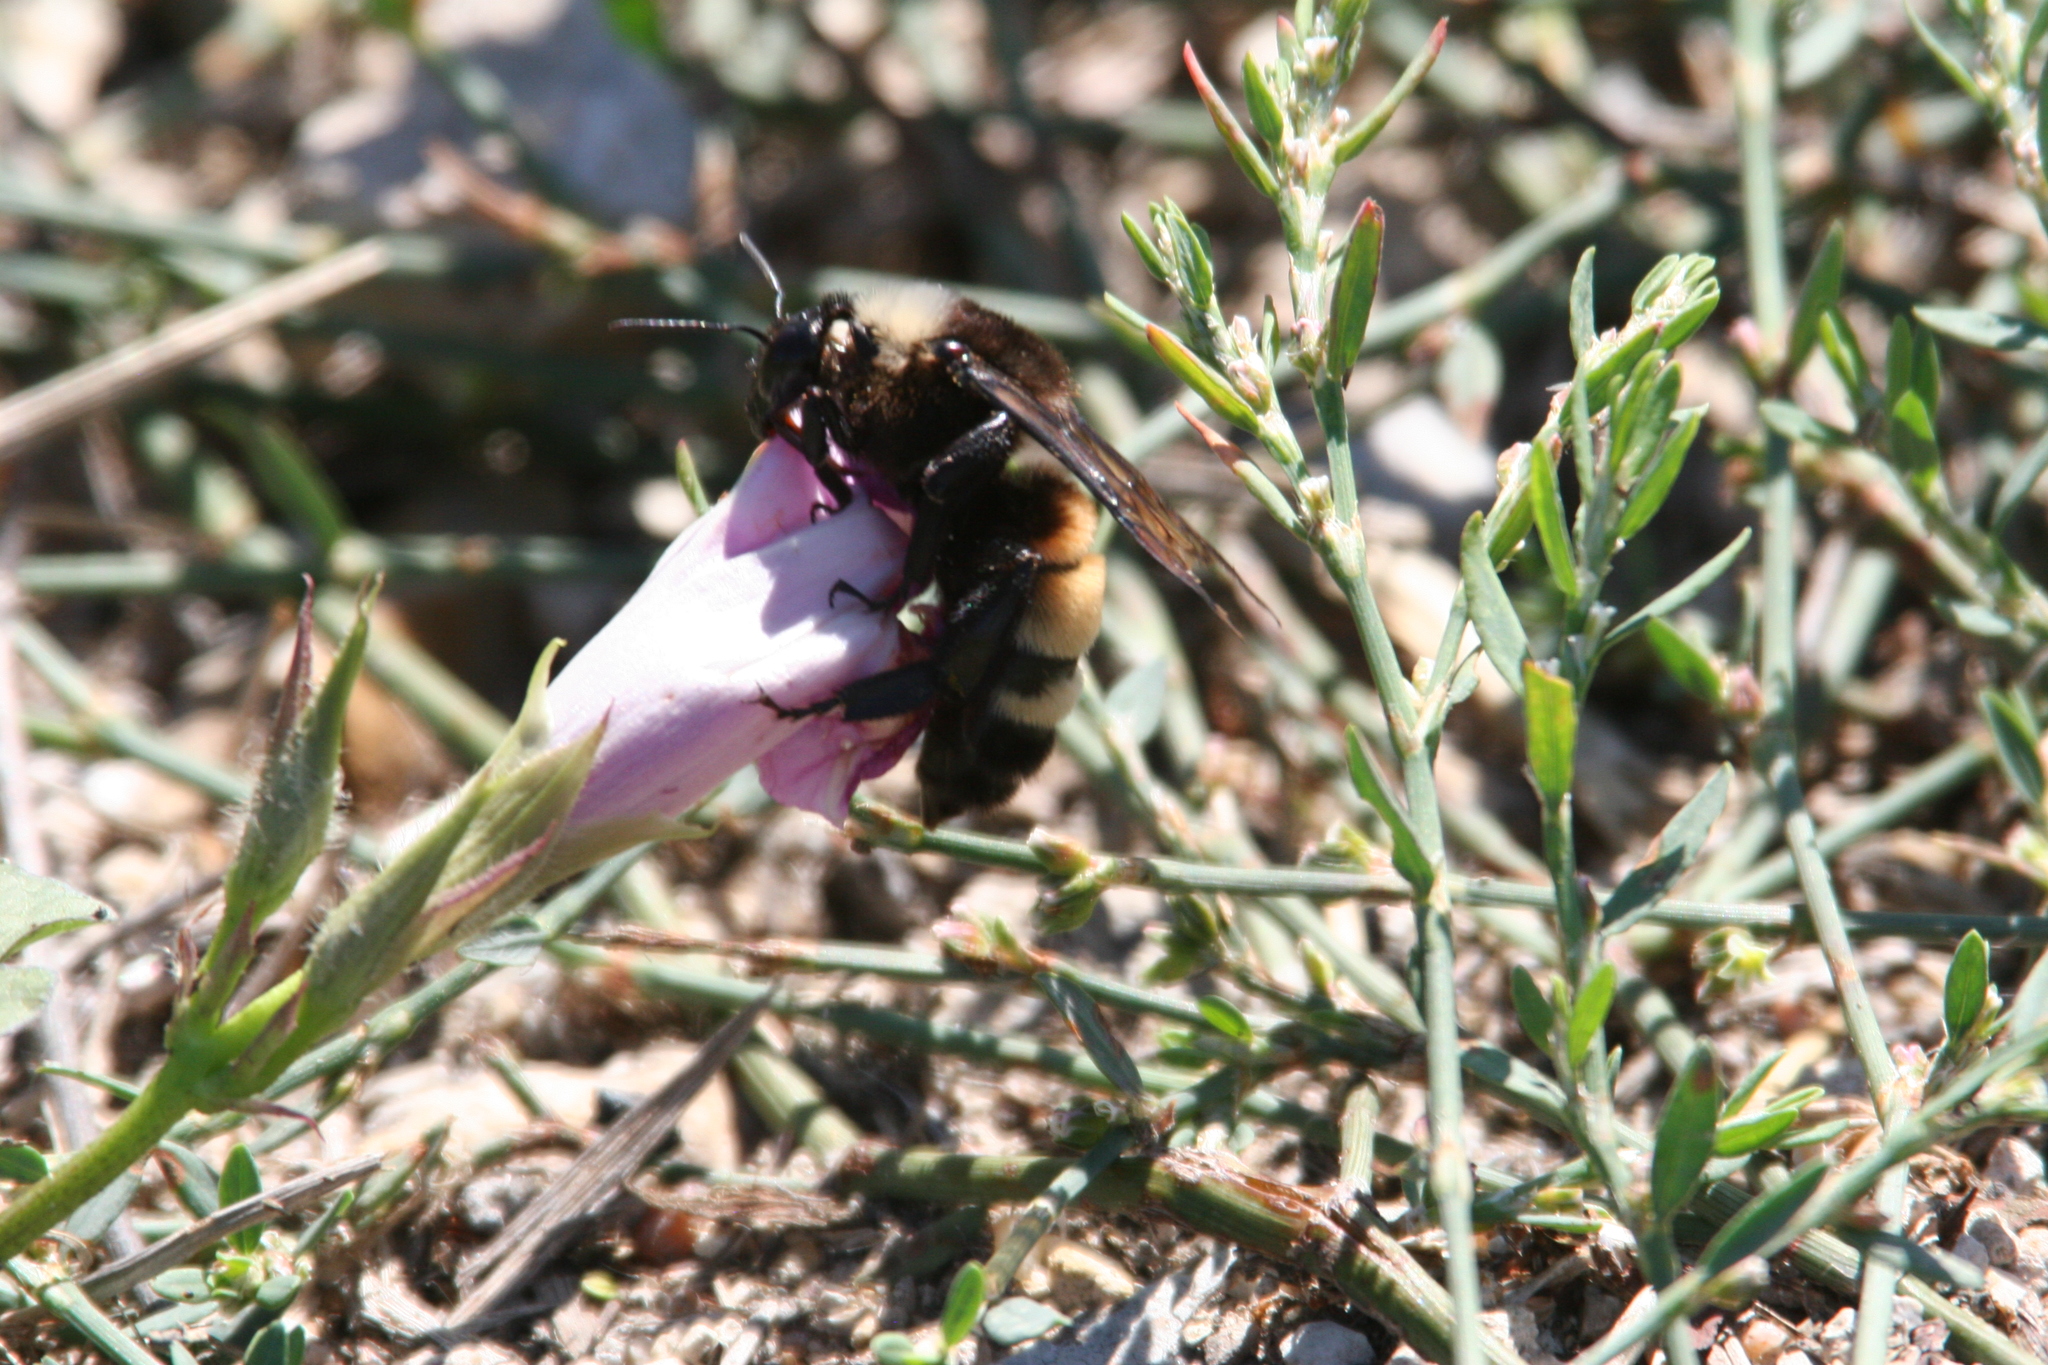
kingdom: Animalia
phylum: Arthropoda
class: Insecta
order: Hymenoptera
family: Apidae
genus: Bombus
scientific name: Bombus pensylvanicus
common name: Bumble bee
